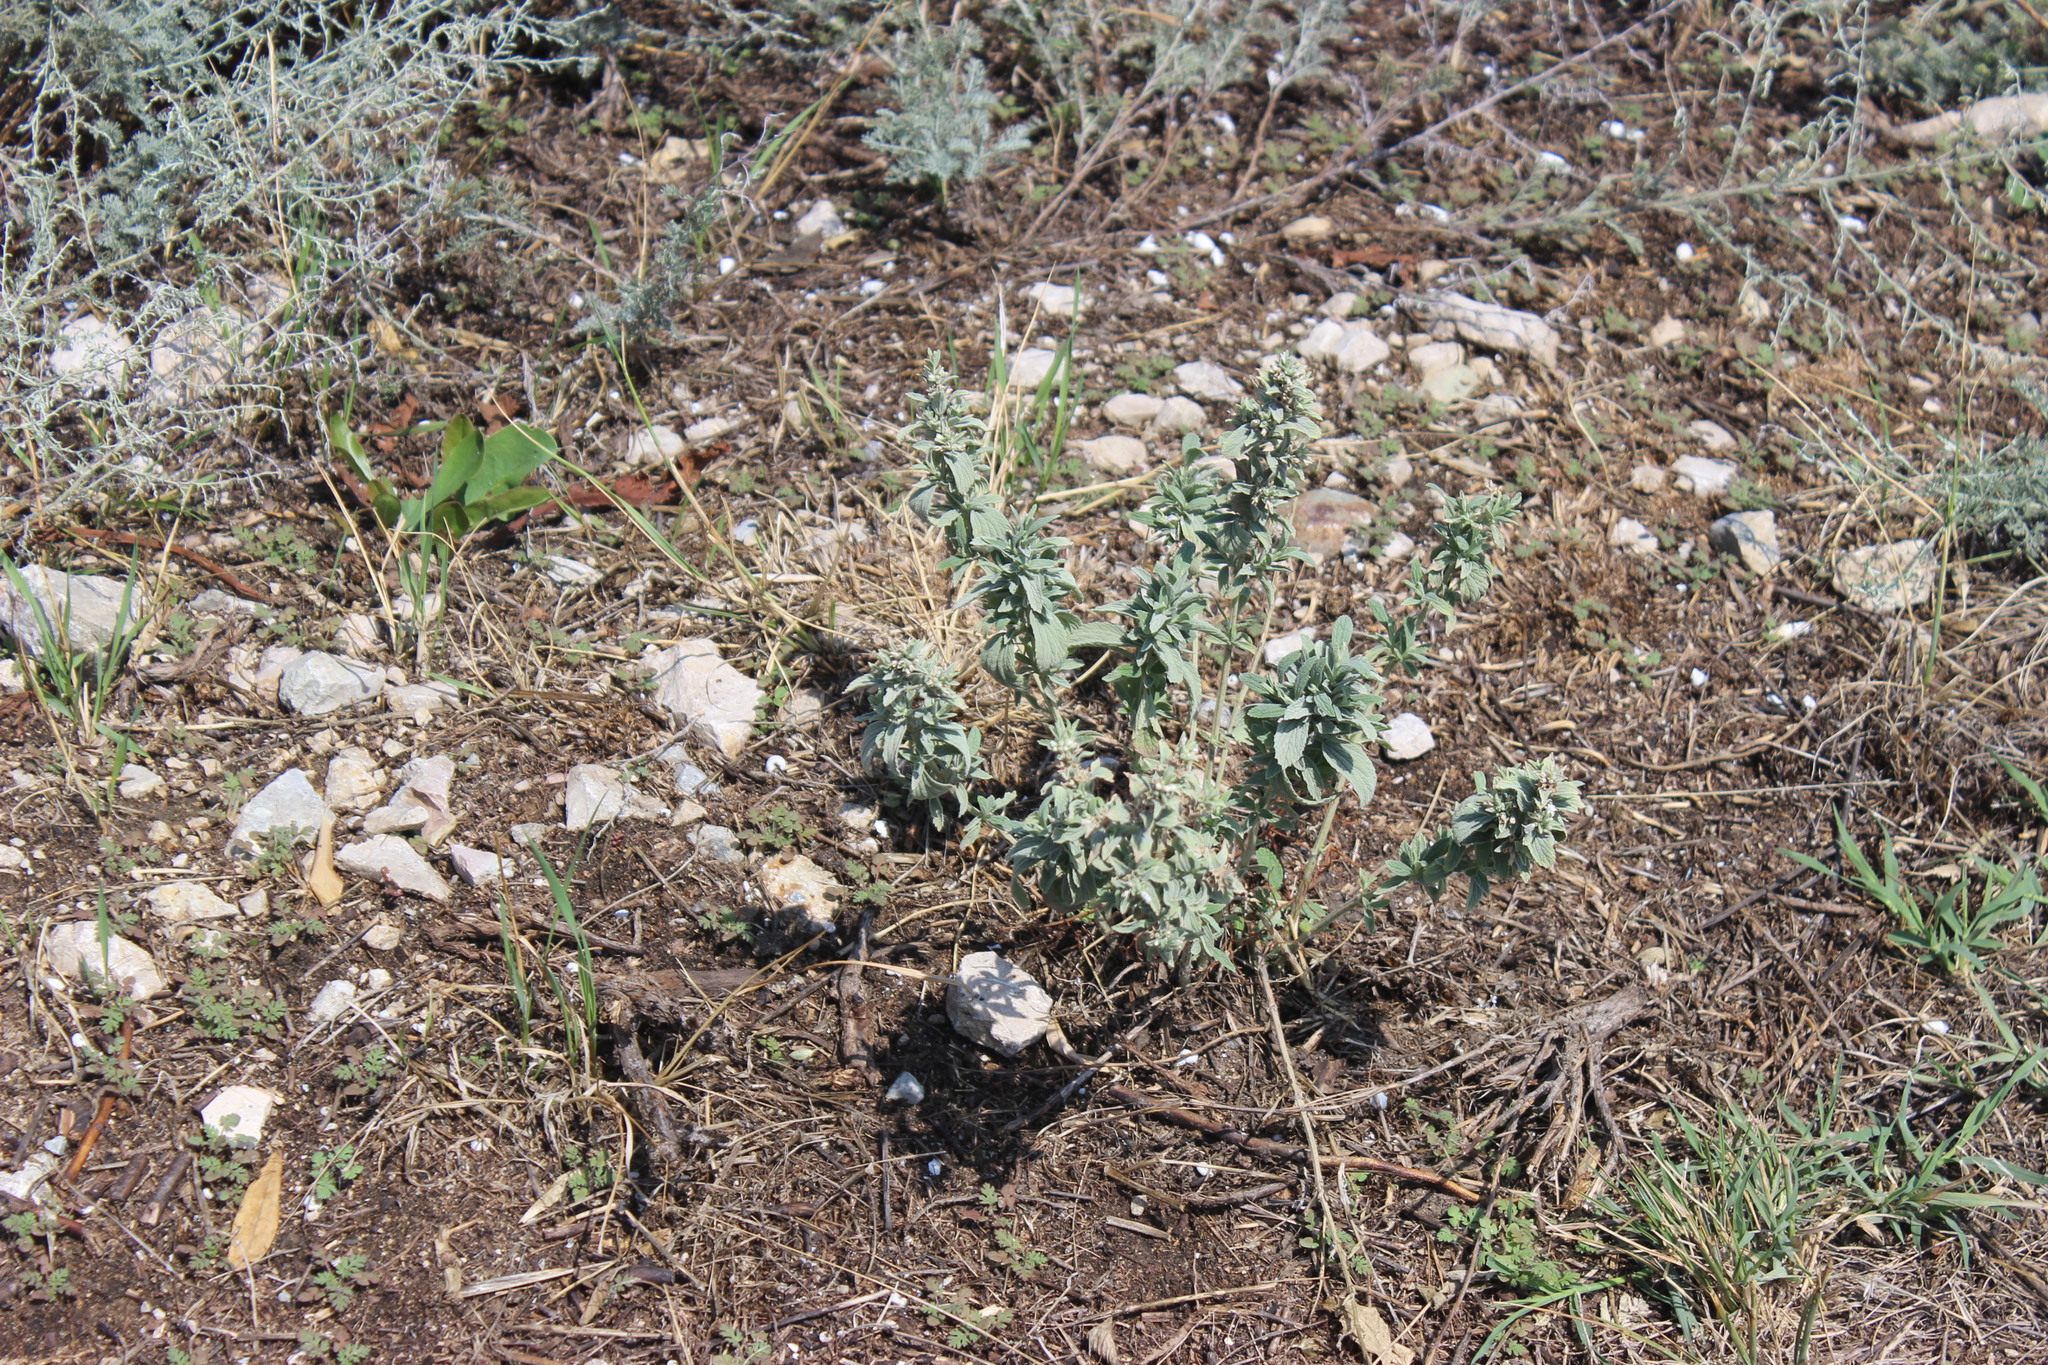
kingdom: Plantae
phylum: Tracheophyta
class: Magnoliopsida
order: Lamiales
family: Lamiaceae
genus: Marrubium
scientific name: Marrubium peregrinum
